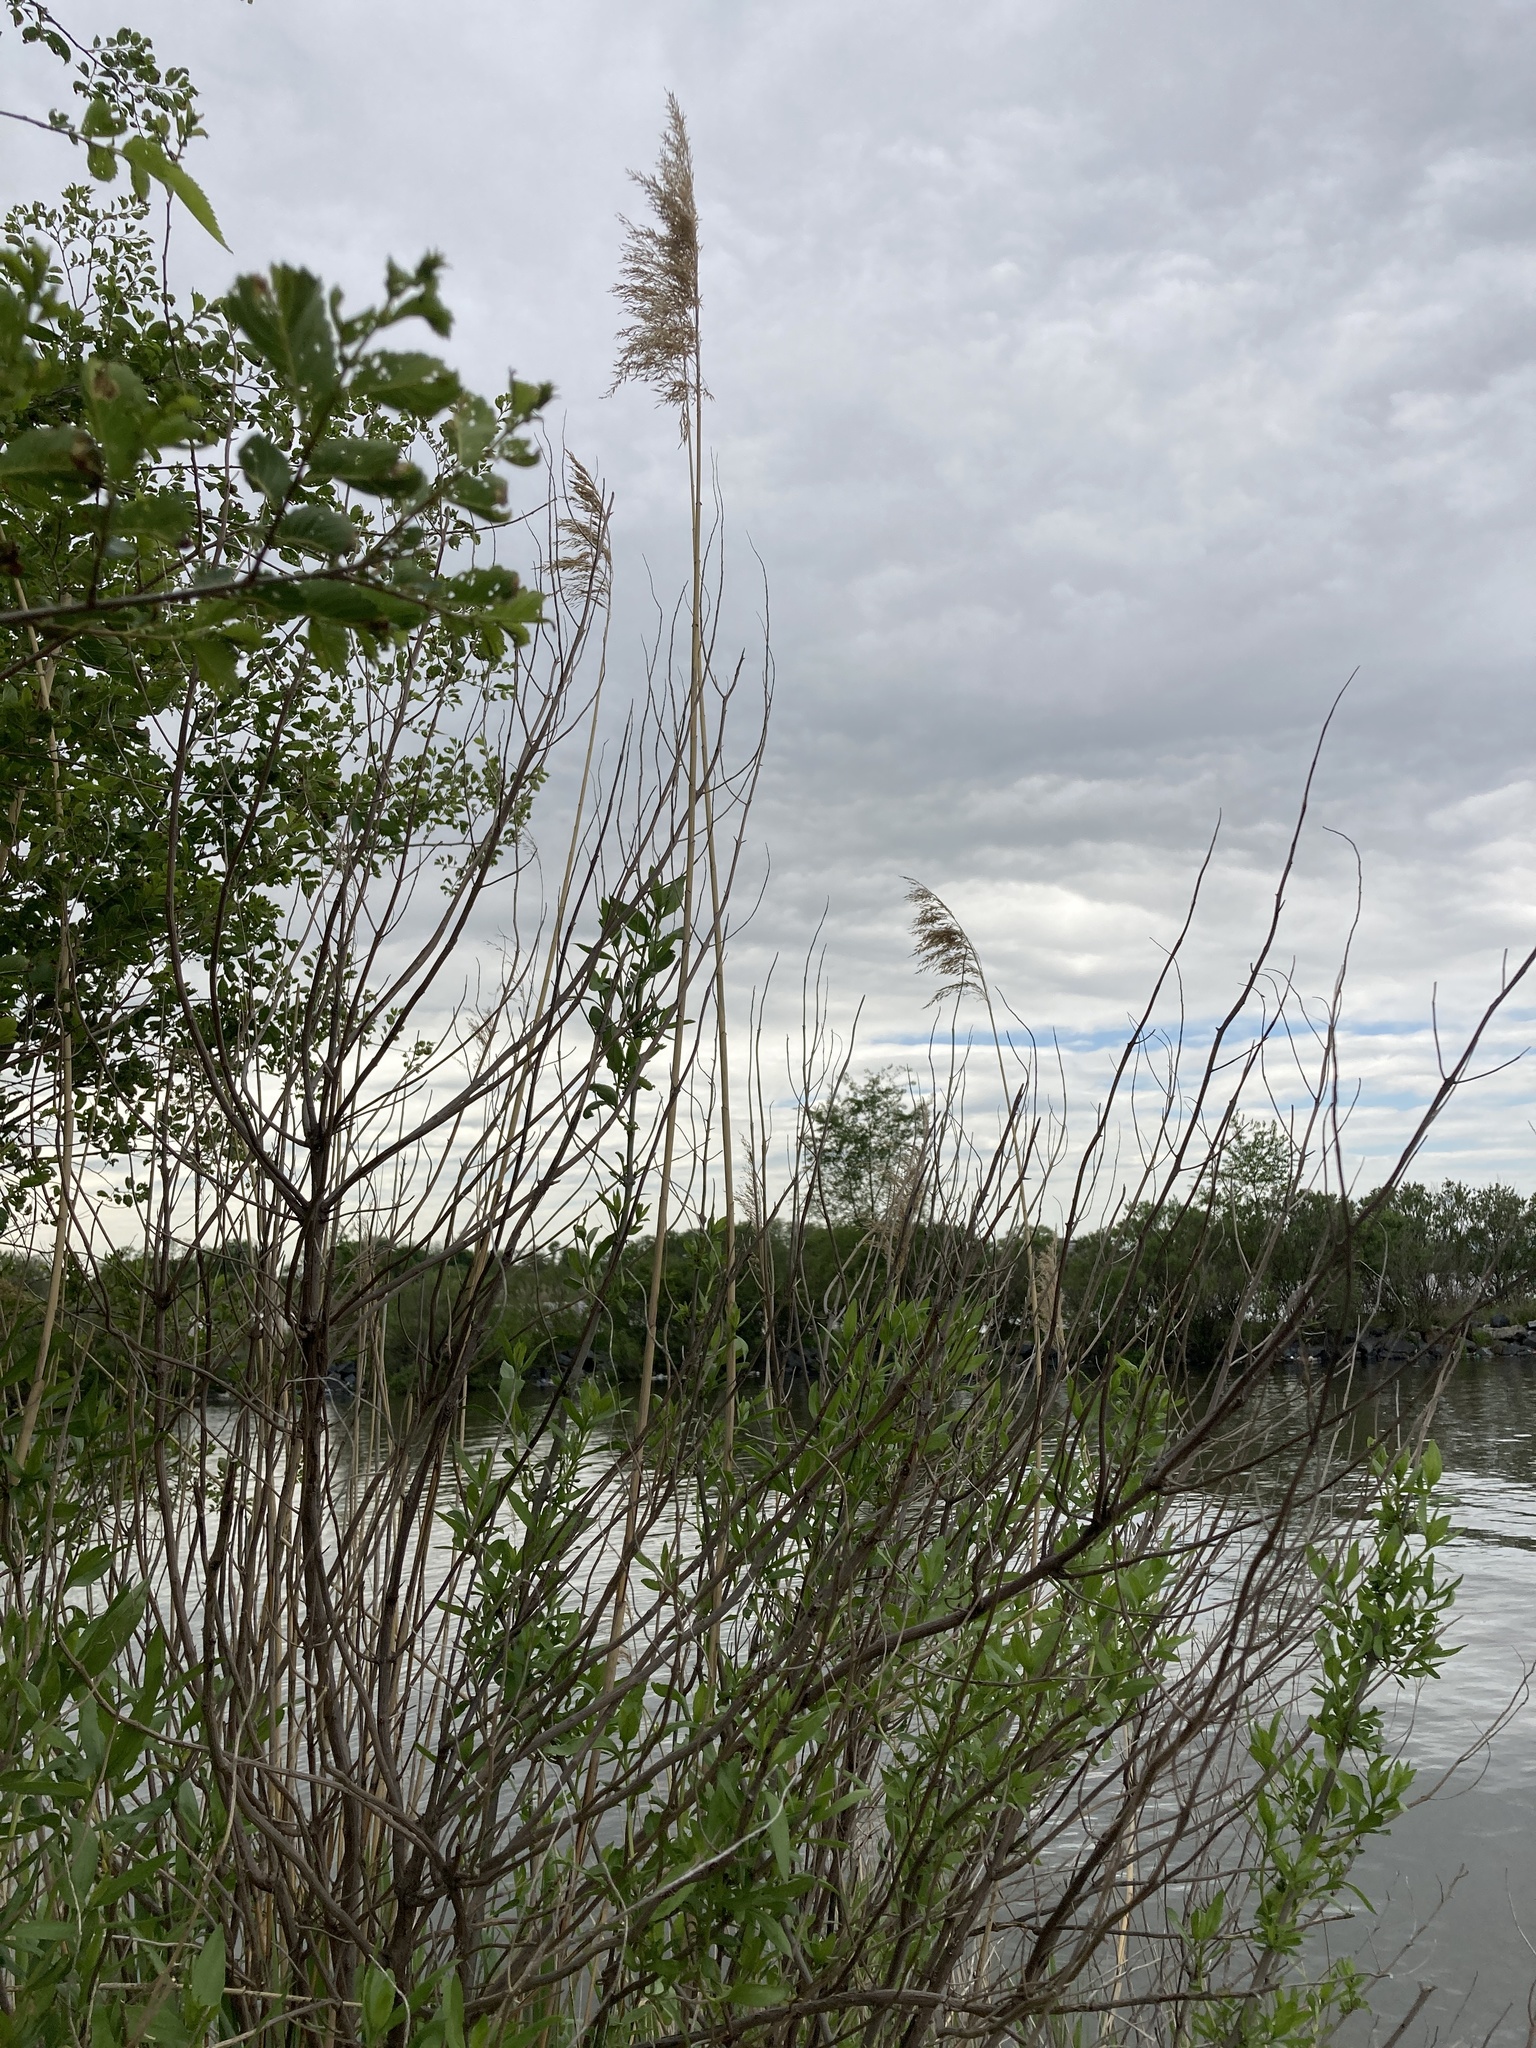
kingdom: Plantae
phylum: Tracheophyta
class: Liliopsida
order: Poales
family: Poaceae
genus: Phragmites
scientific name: Phragmites australis
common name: Common reed
